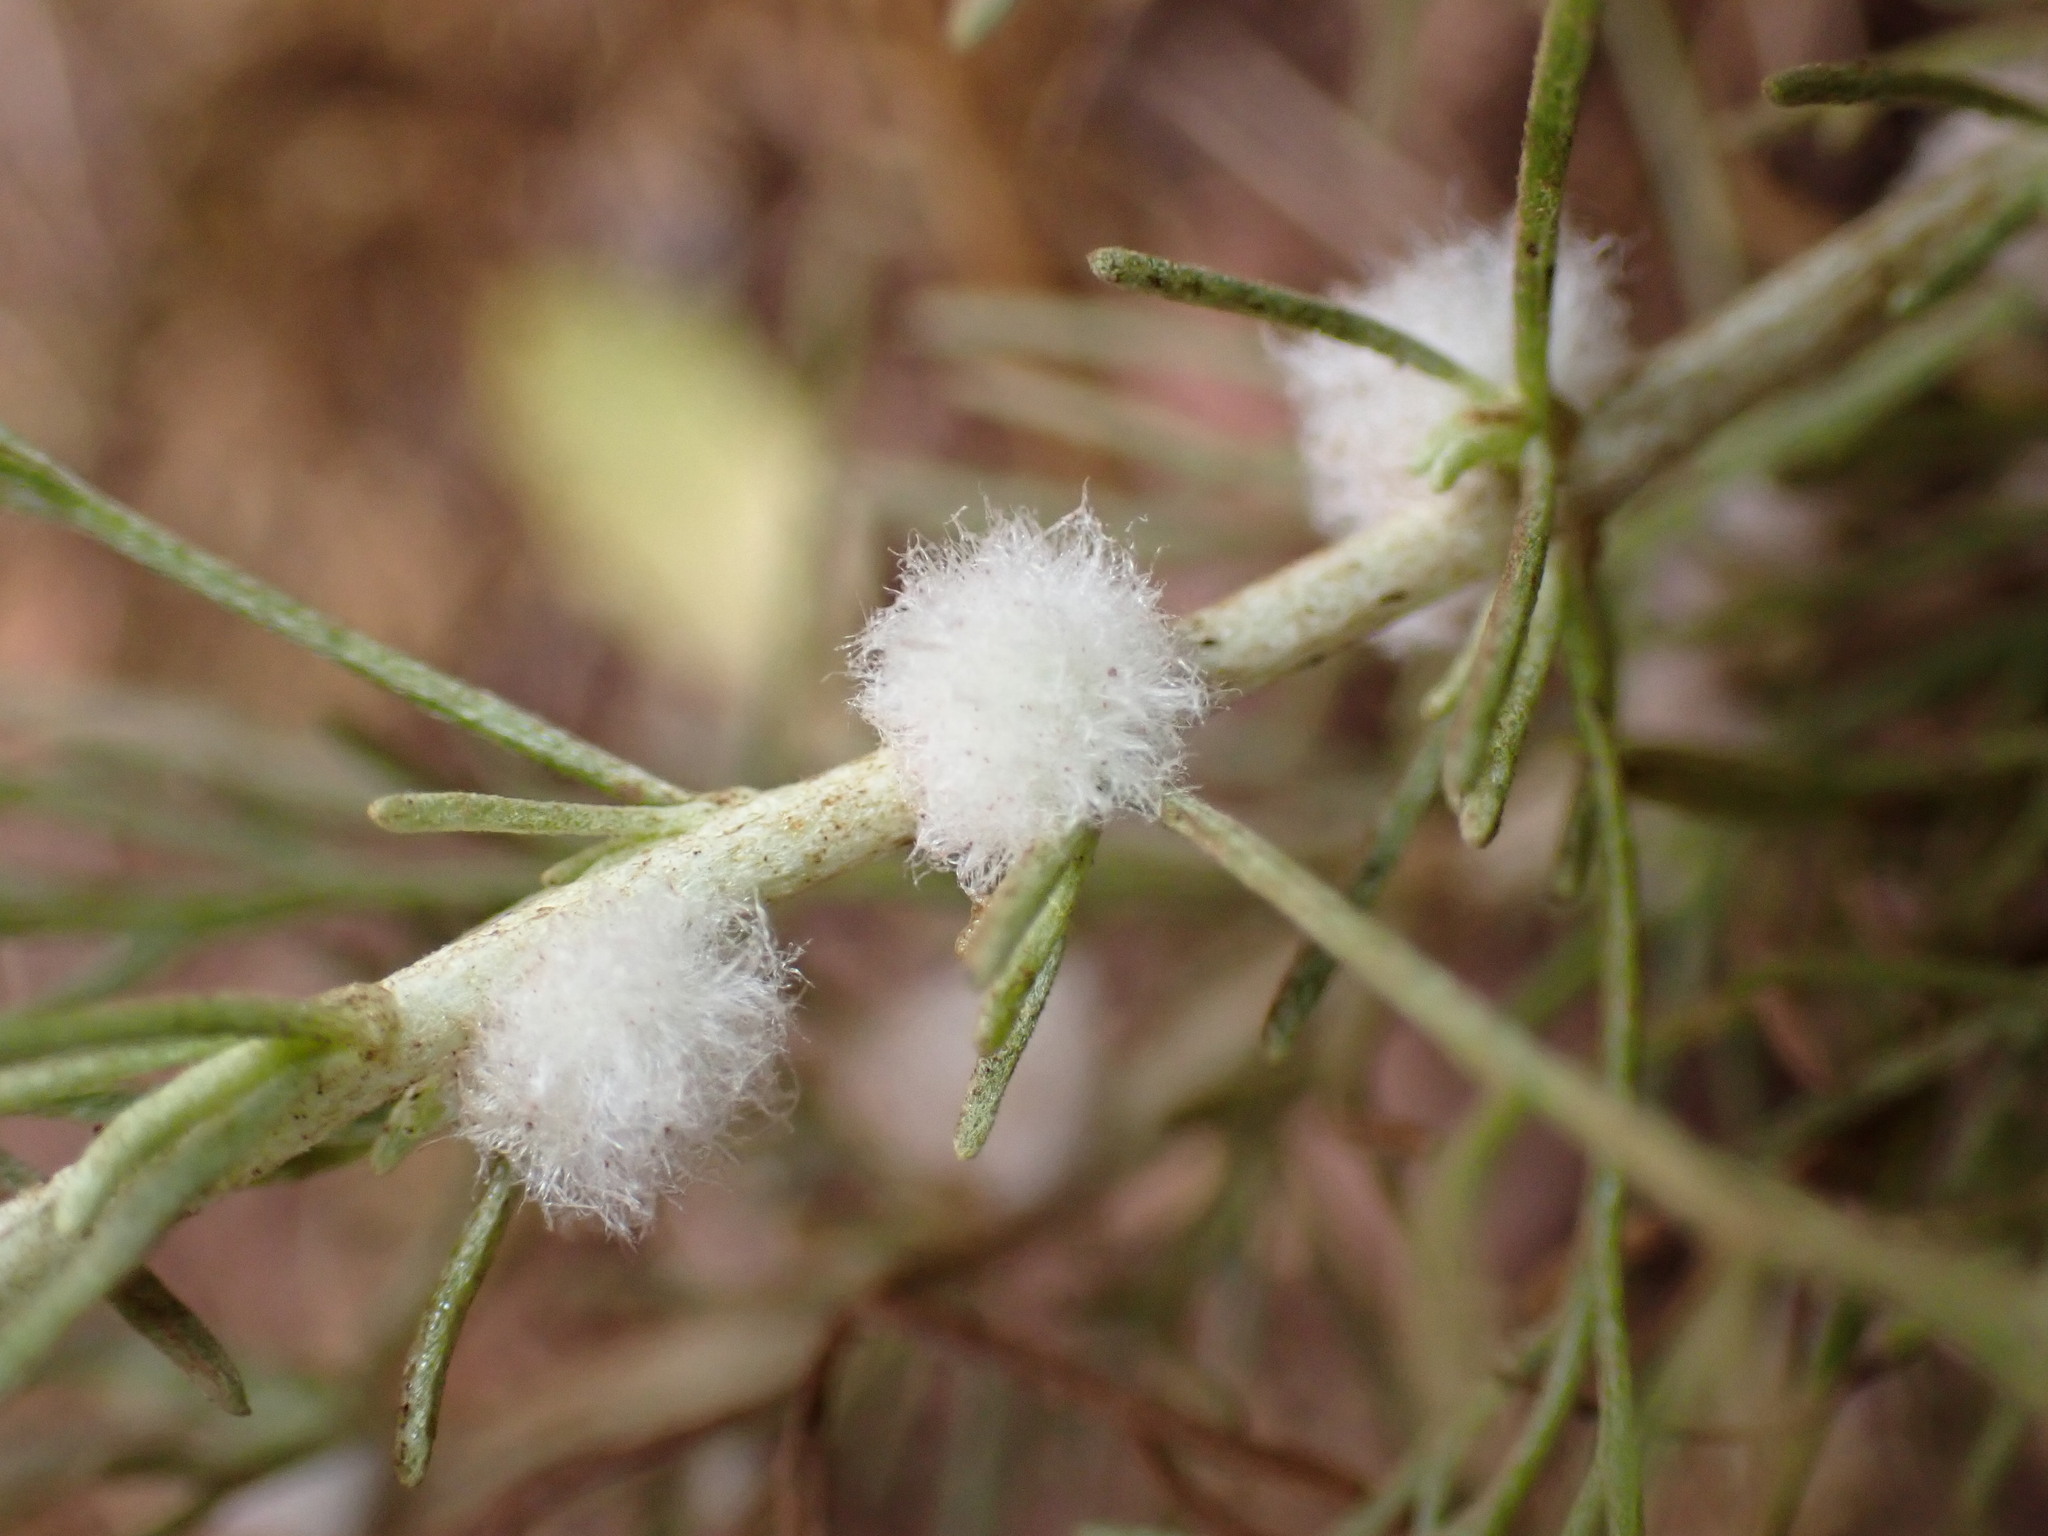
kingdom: Animalia
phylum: Arthropoda
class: Insecta
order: Diptera
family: Cecidomyiidae
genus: Rhopalomyia
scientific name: Rhopalomyia floccosa
